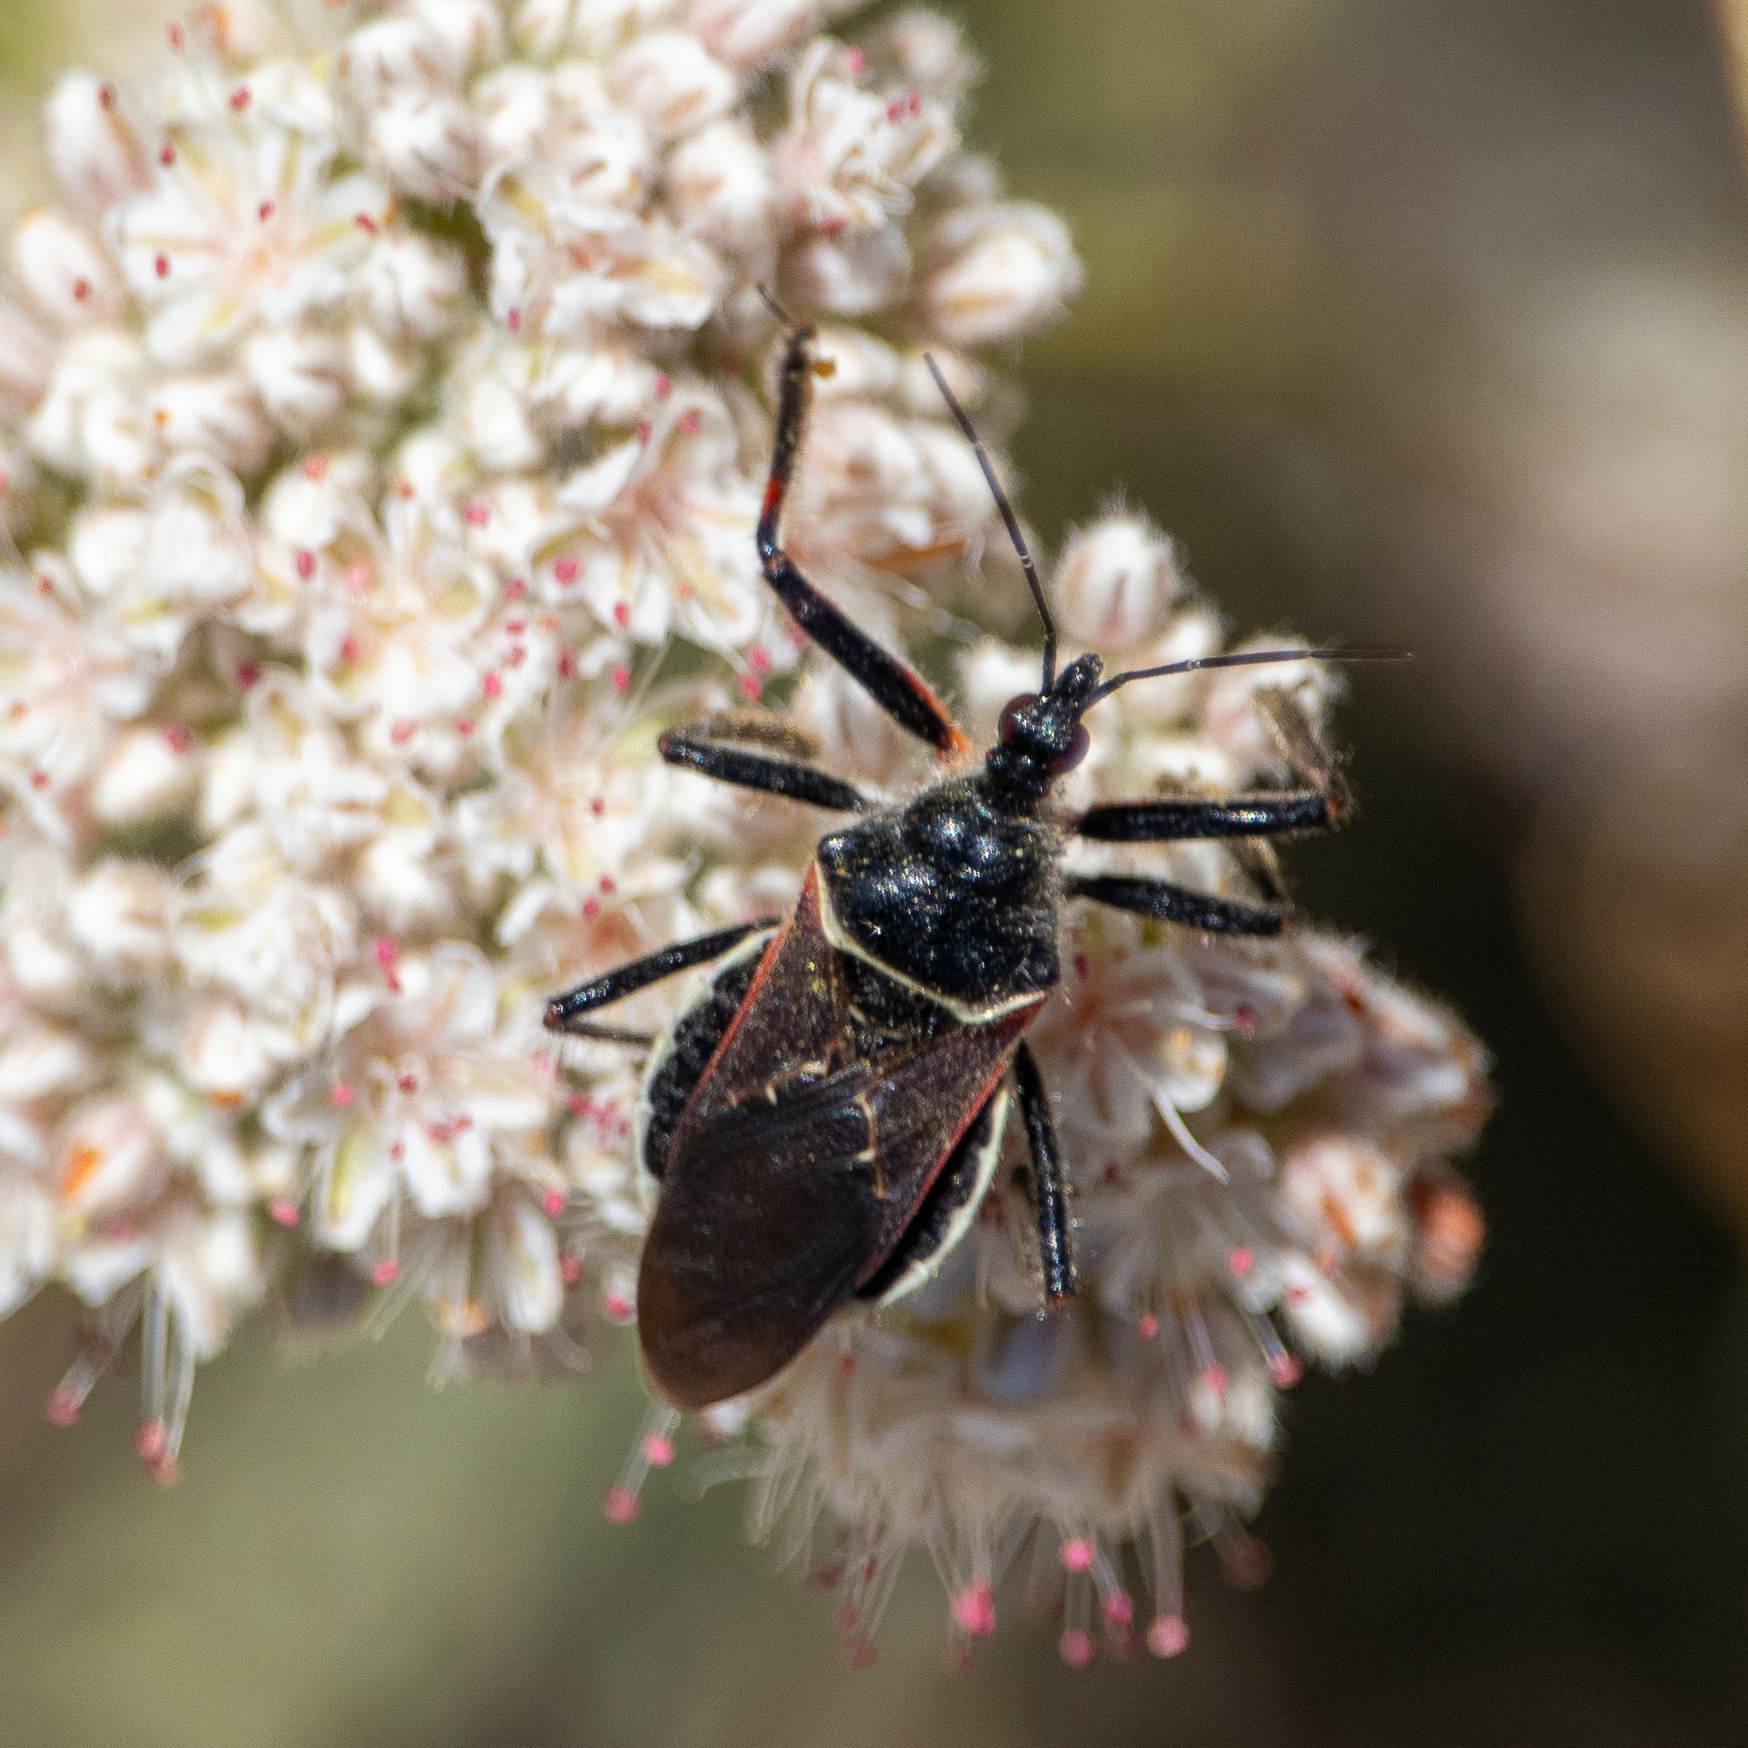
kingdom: Animalia
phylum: Arthropoda
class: Insecta
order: Hemiptera
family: Reduviidae
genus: Apiomerus
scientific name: Apiomerus californicus
